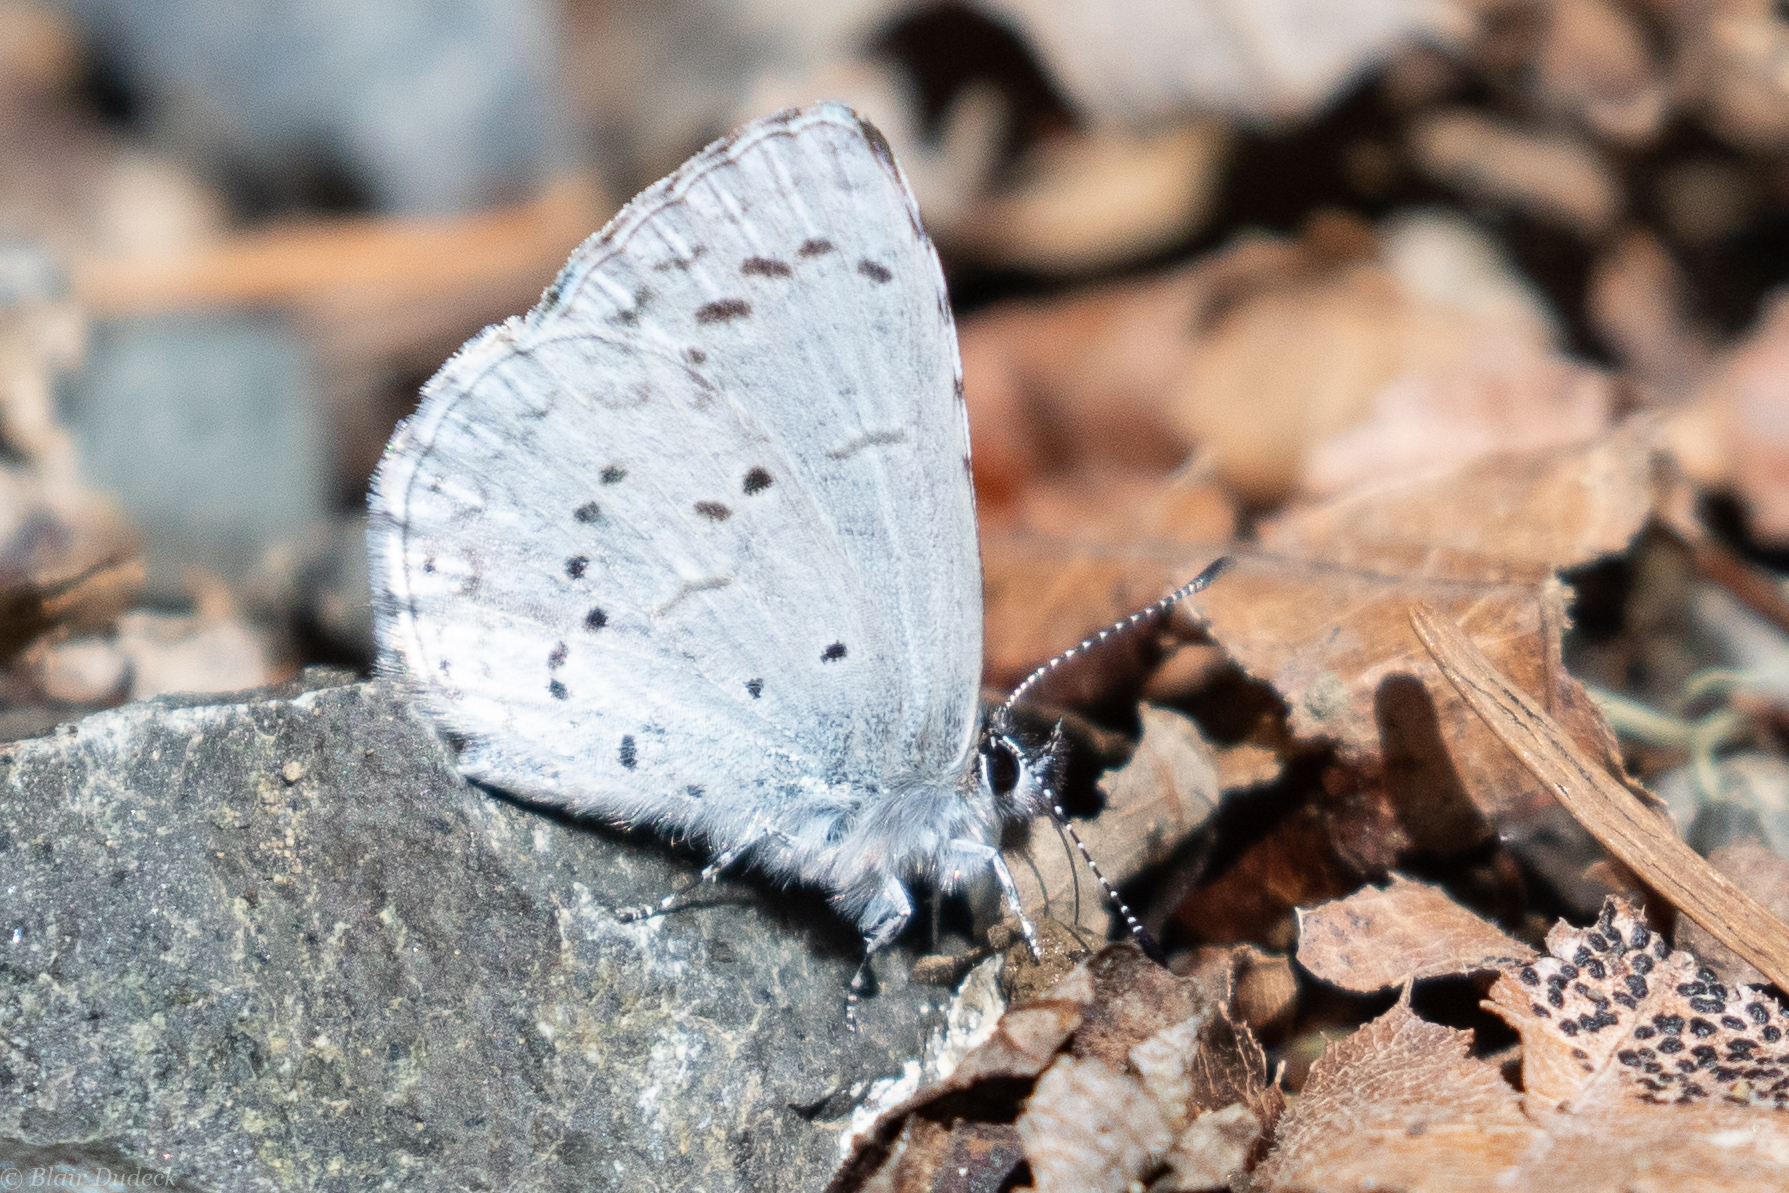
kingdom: Animalia
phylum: Arthropoda
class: Insecta
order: Lepidoptera
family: Lycaenidae
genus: Celastrina
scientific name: Celastrina ladon
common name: Spring azure
